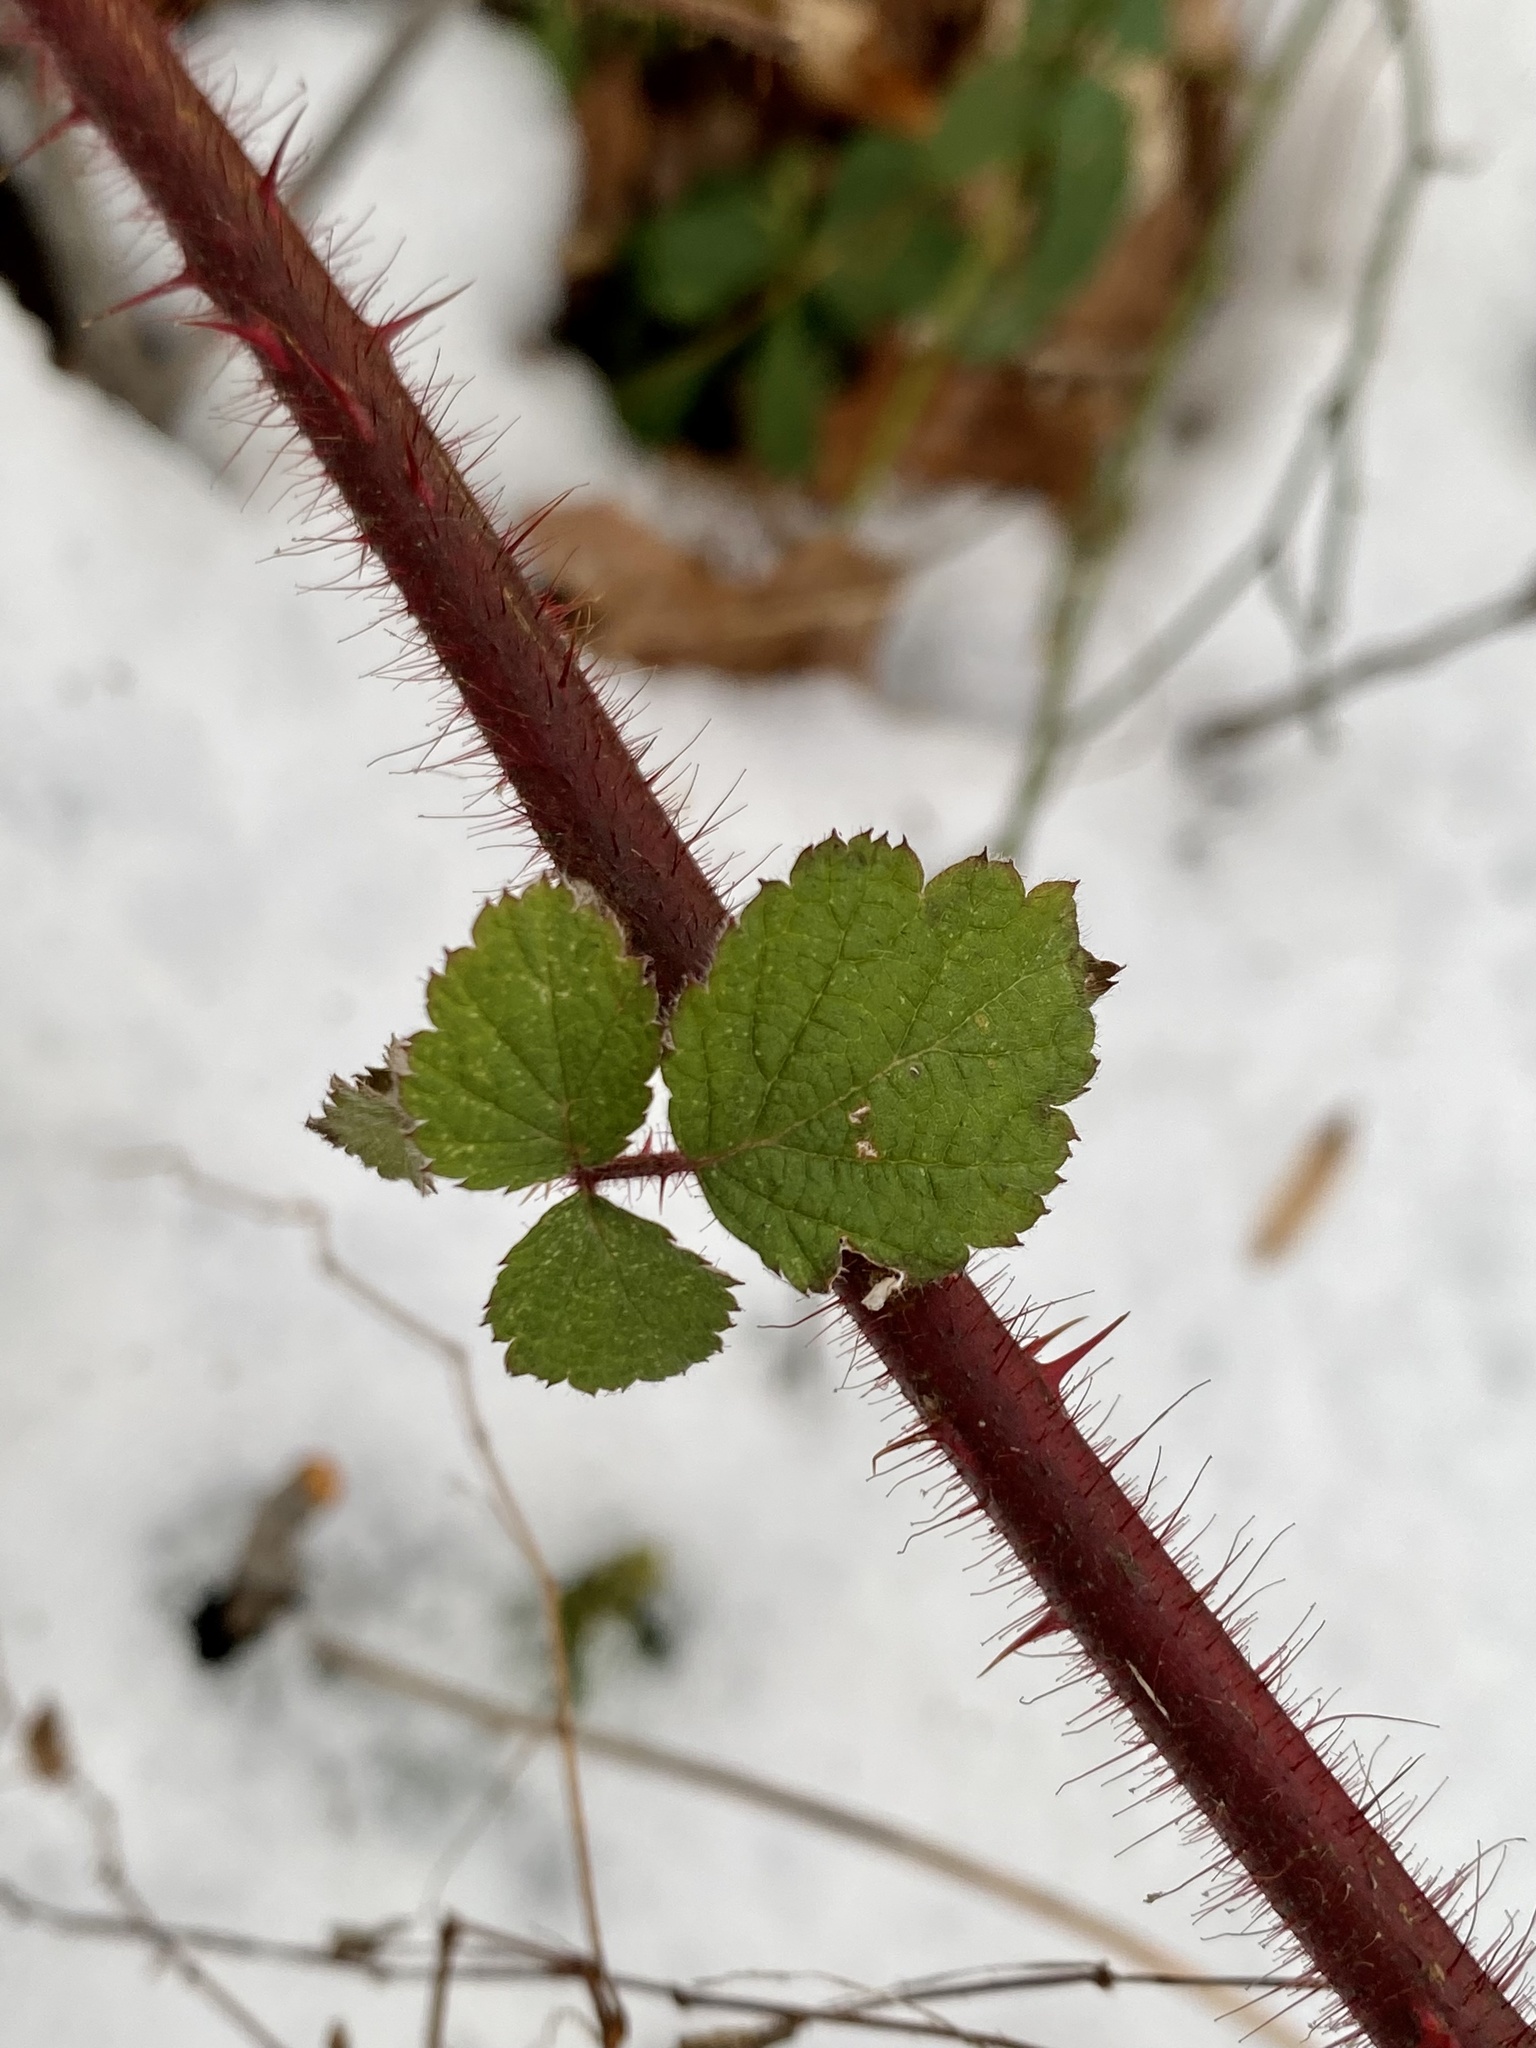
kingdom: Plantae
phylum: Tracheophyta
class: Magnoliopsida
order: Rosales
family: Rosaceae
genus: Rubus
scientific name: Rubus phoenicolasius
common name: Japanese wineberry
